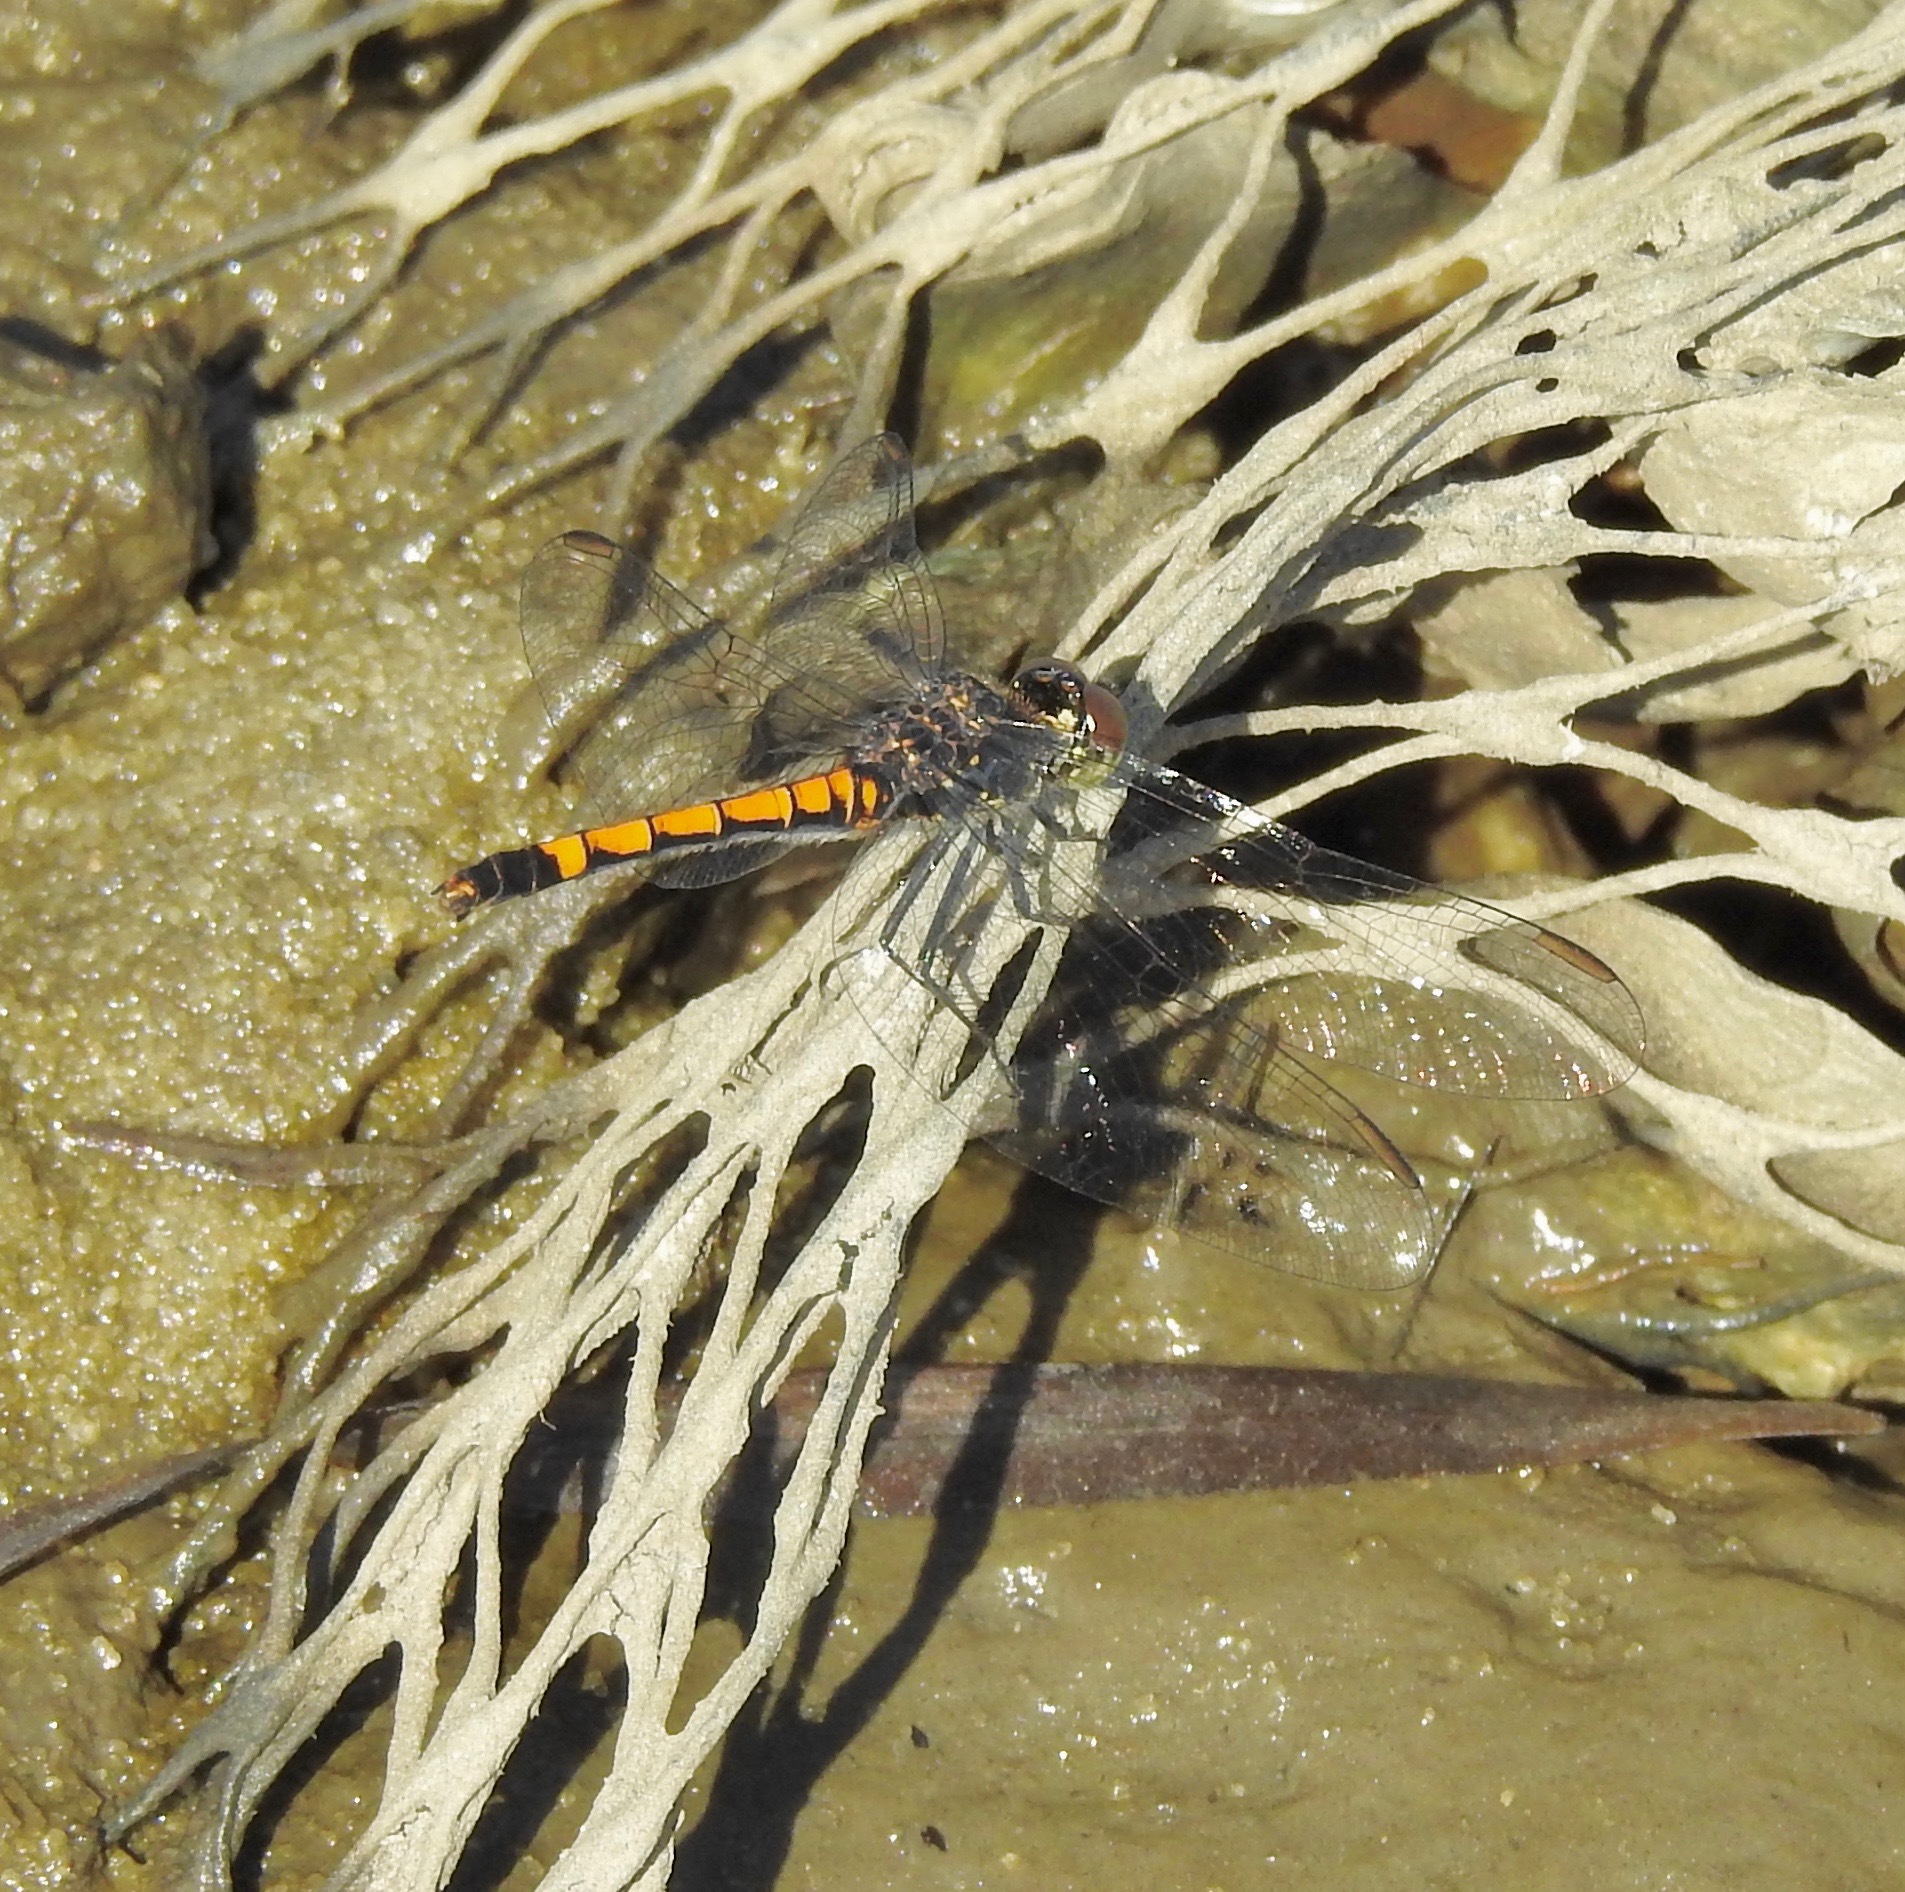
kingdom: Animalia
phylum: Arthropoda
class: Insecta
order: Odonata
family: Libellulidae
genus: Erythrodiplax
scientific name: Erythrodiplax berenice
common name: Seaside dragonlet
